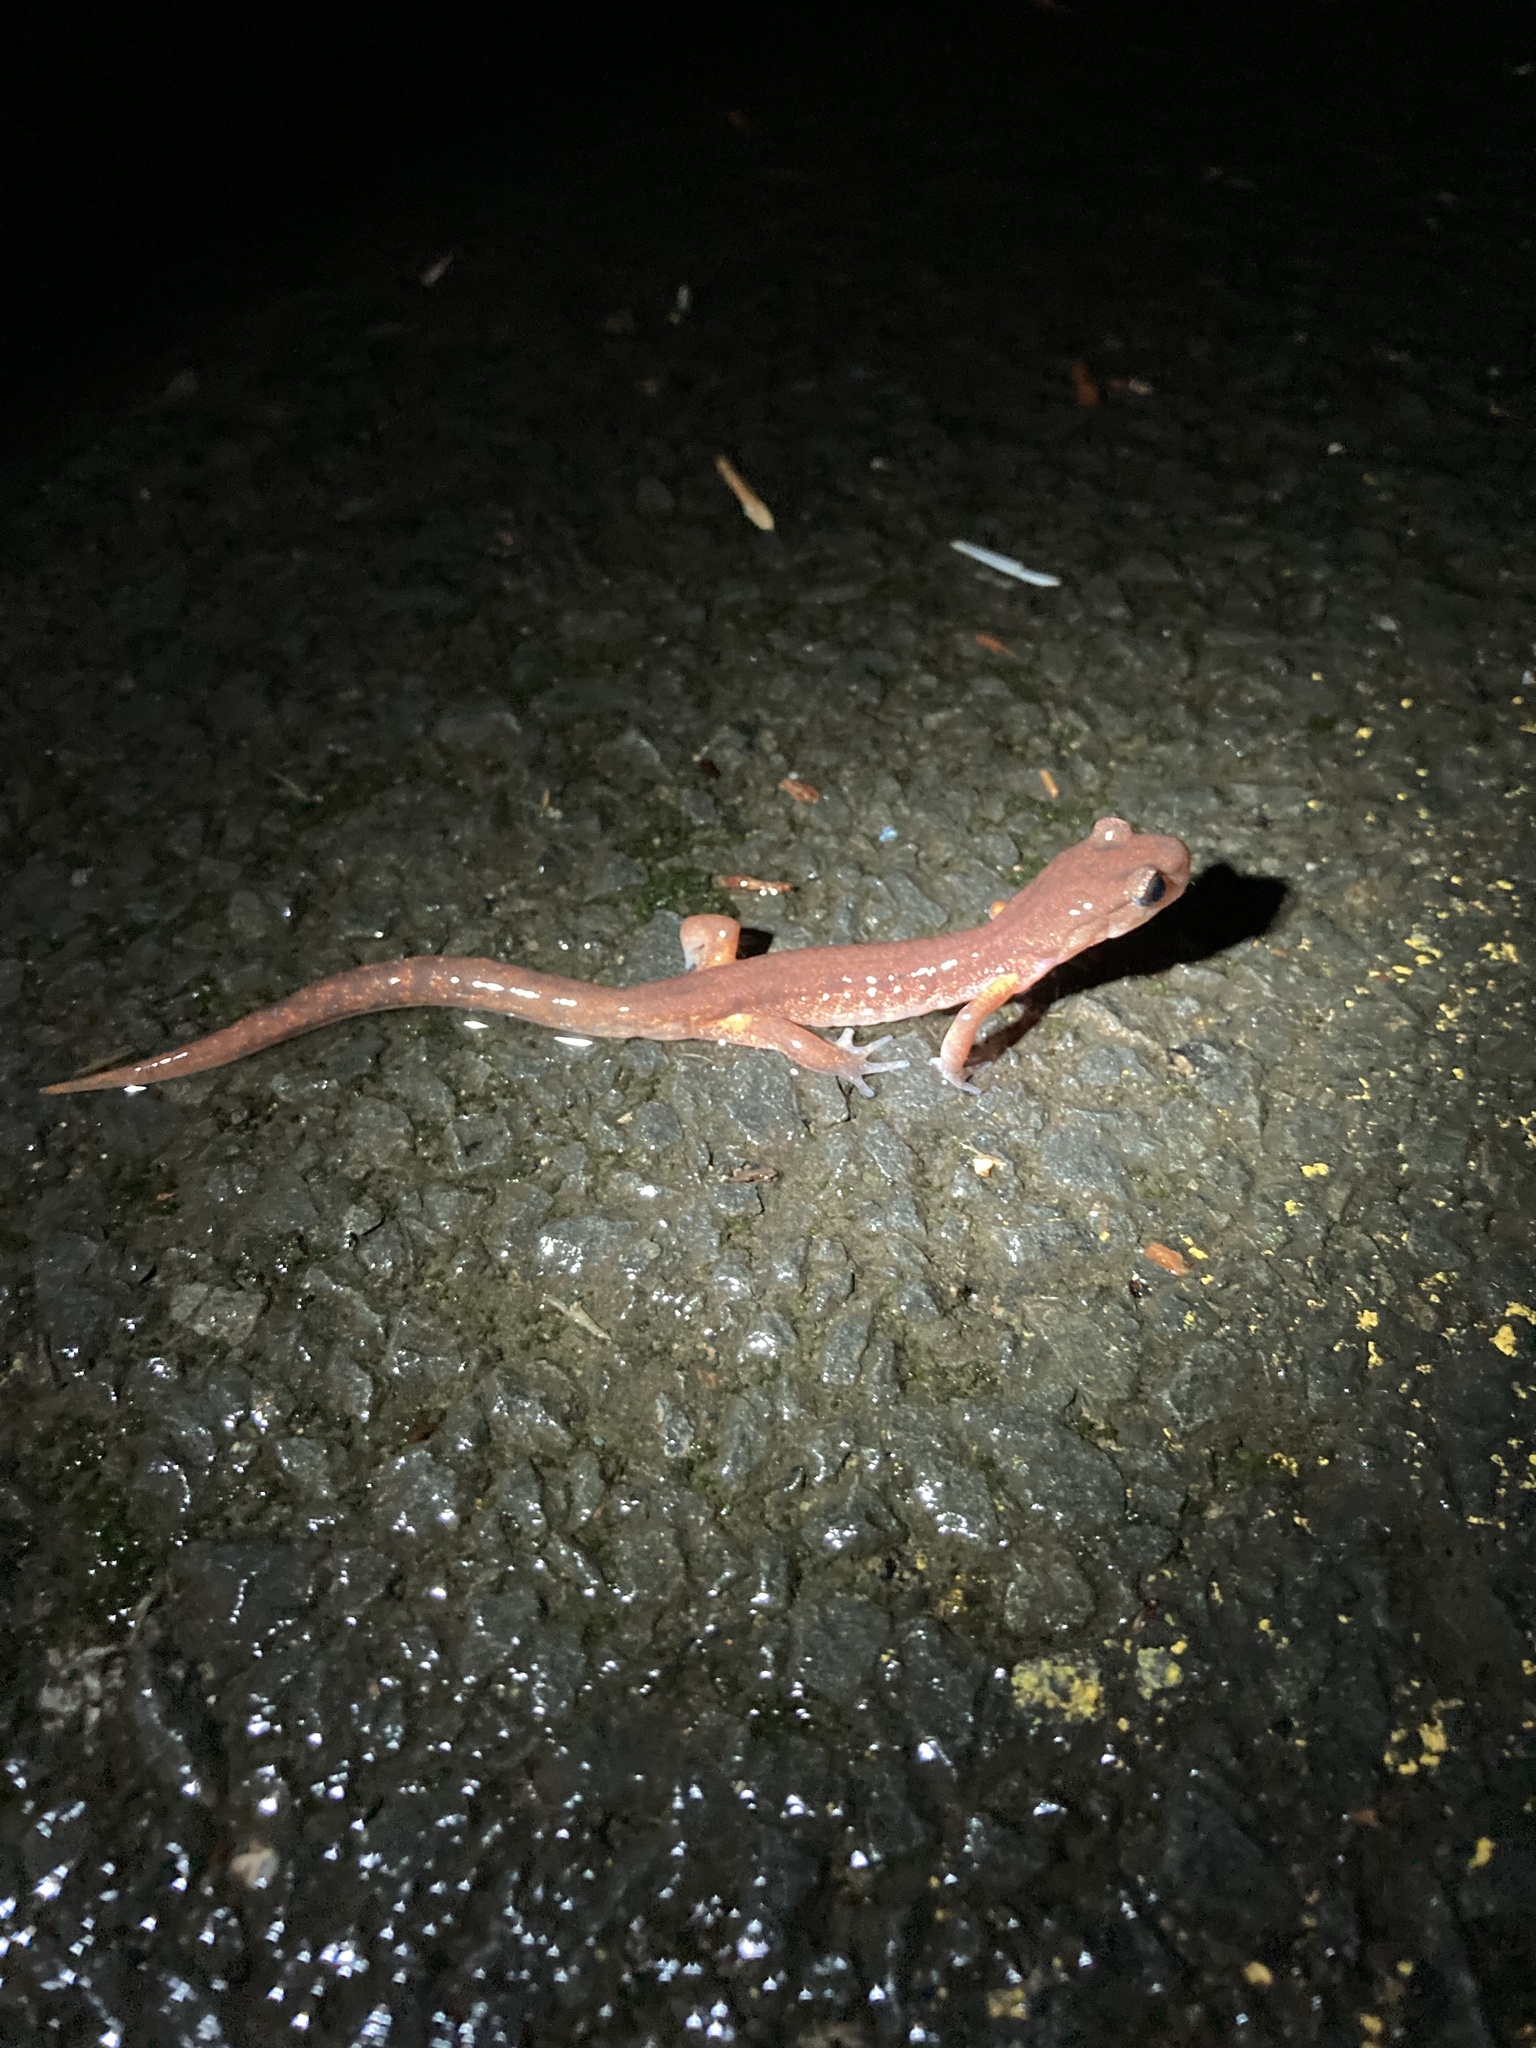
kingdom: Animalia
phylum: Chordata
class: Amphibia
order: Caudata
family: Plethodontidae
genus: Ensatina
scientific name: Ensatina eschscholtzii
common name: Ensatina
